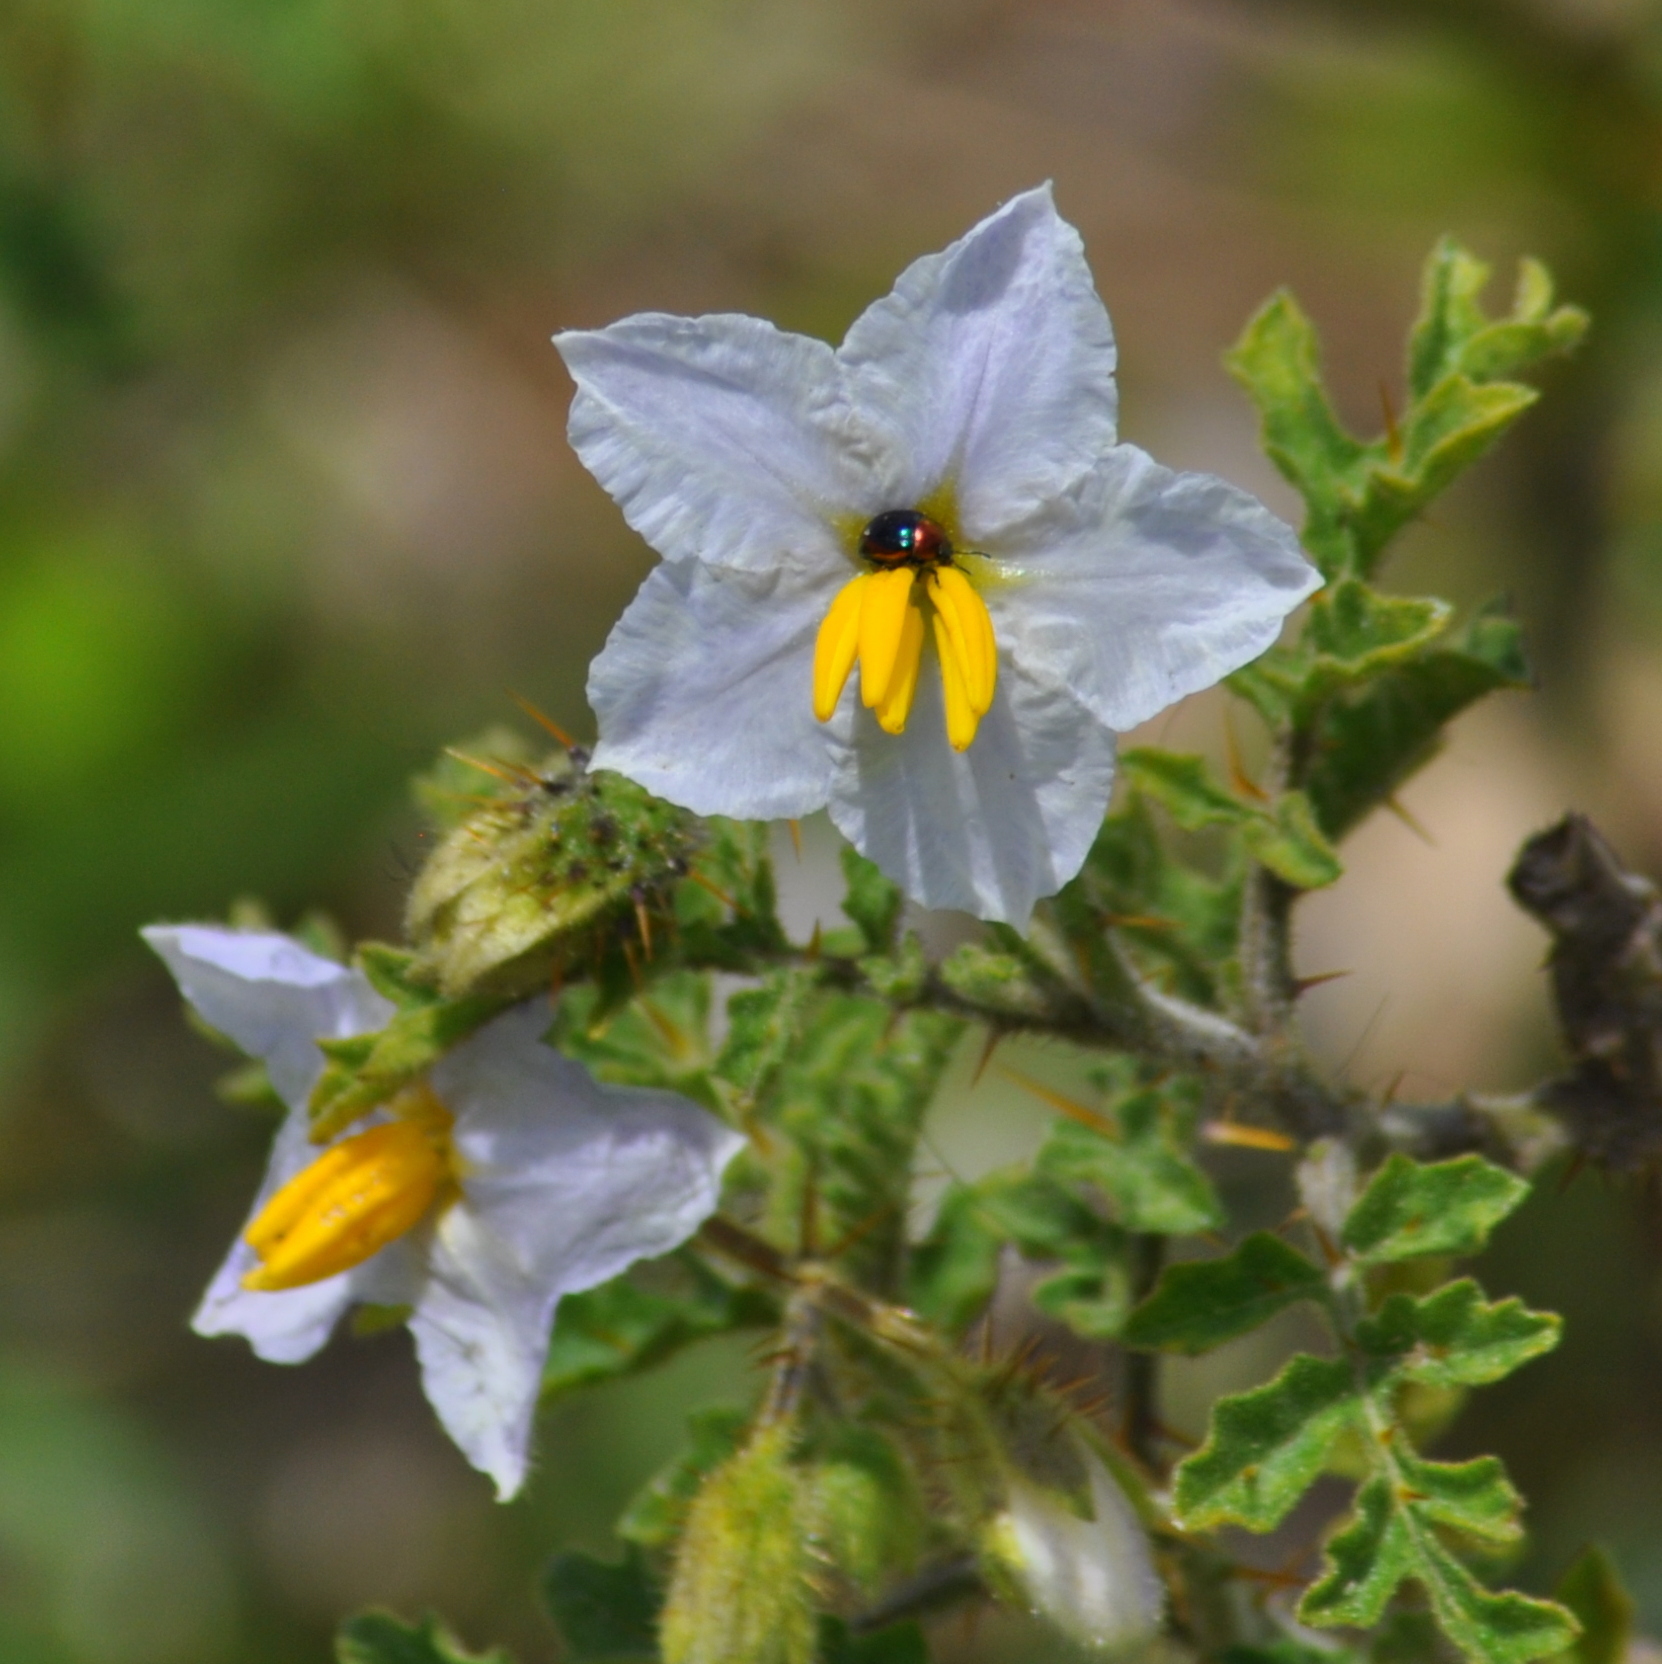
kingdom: Plantae
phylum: Tracheophyta
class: Magnoliopsida
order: Solanales
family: Solanaceae
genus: Solanum
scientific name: Solanum sisymbriifolium
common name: Red buffalo-bur
